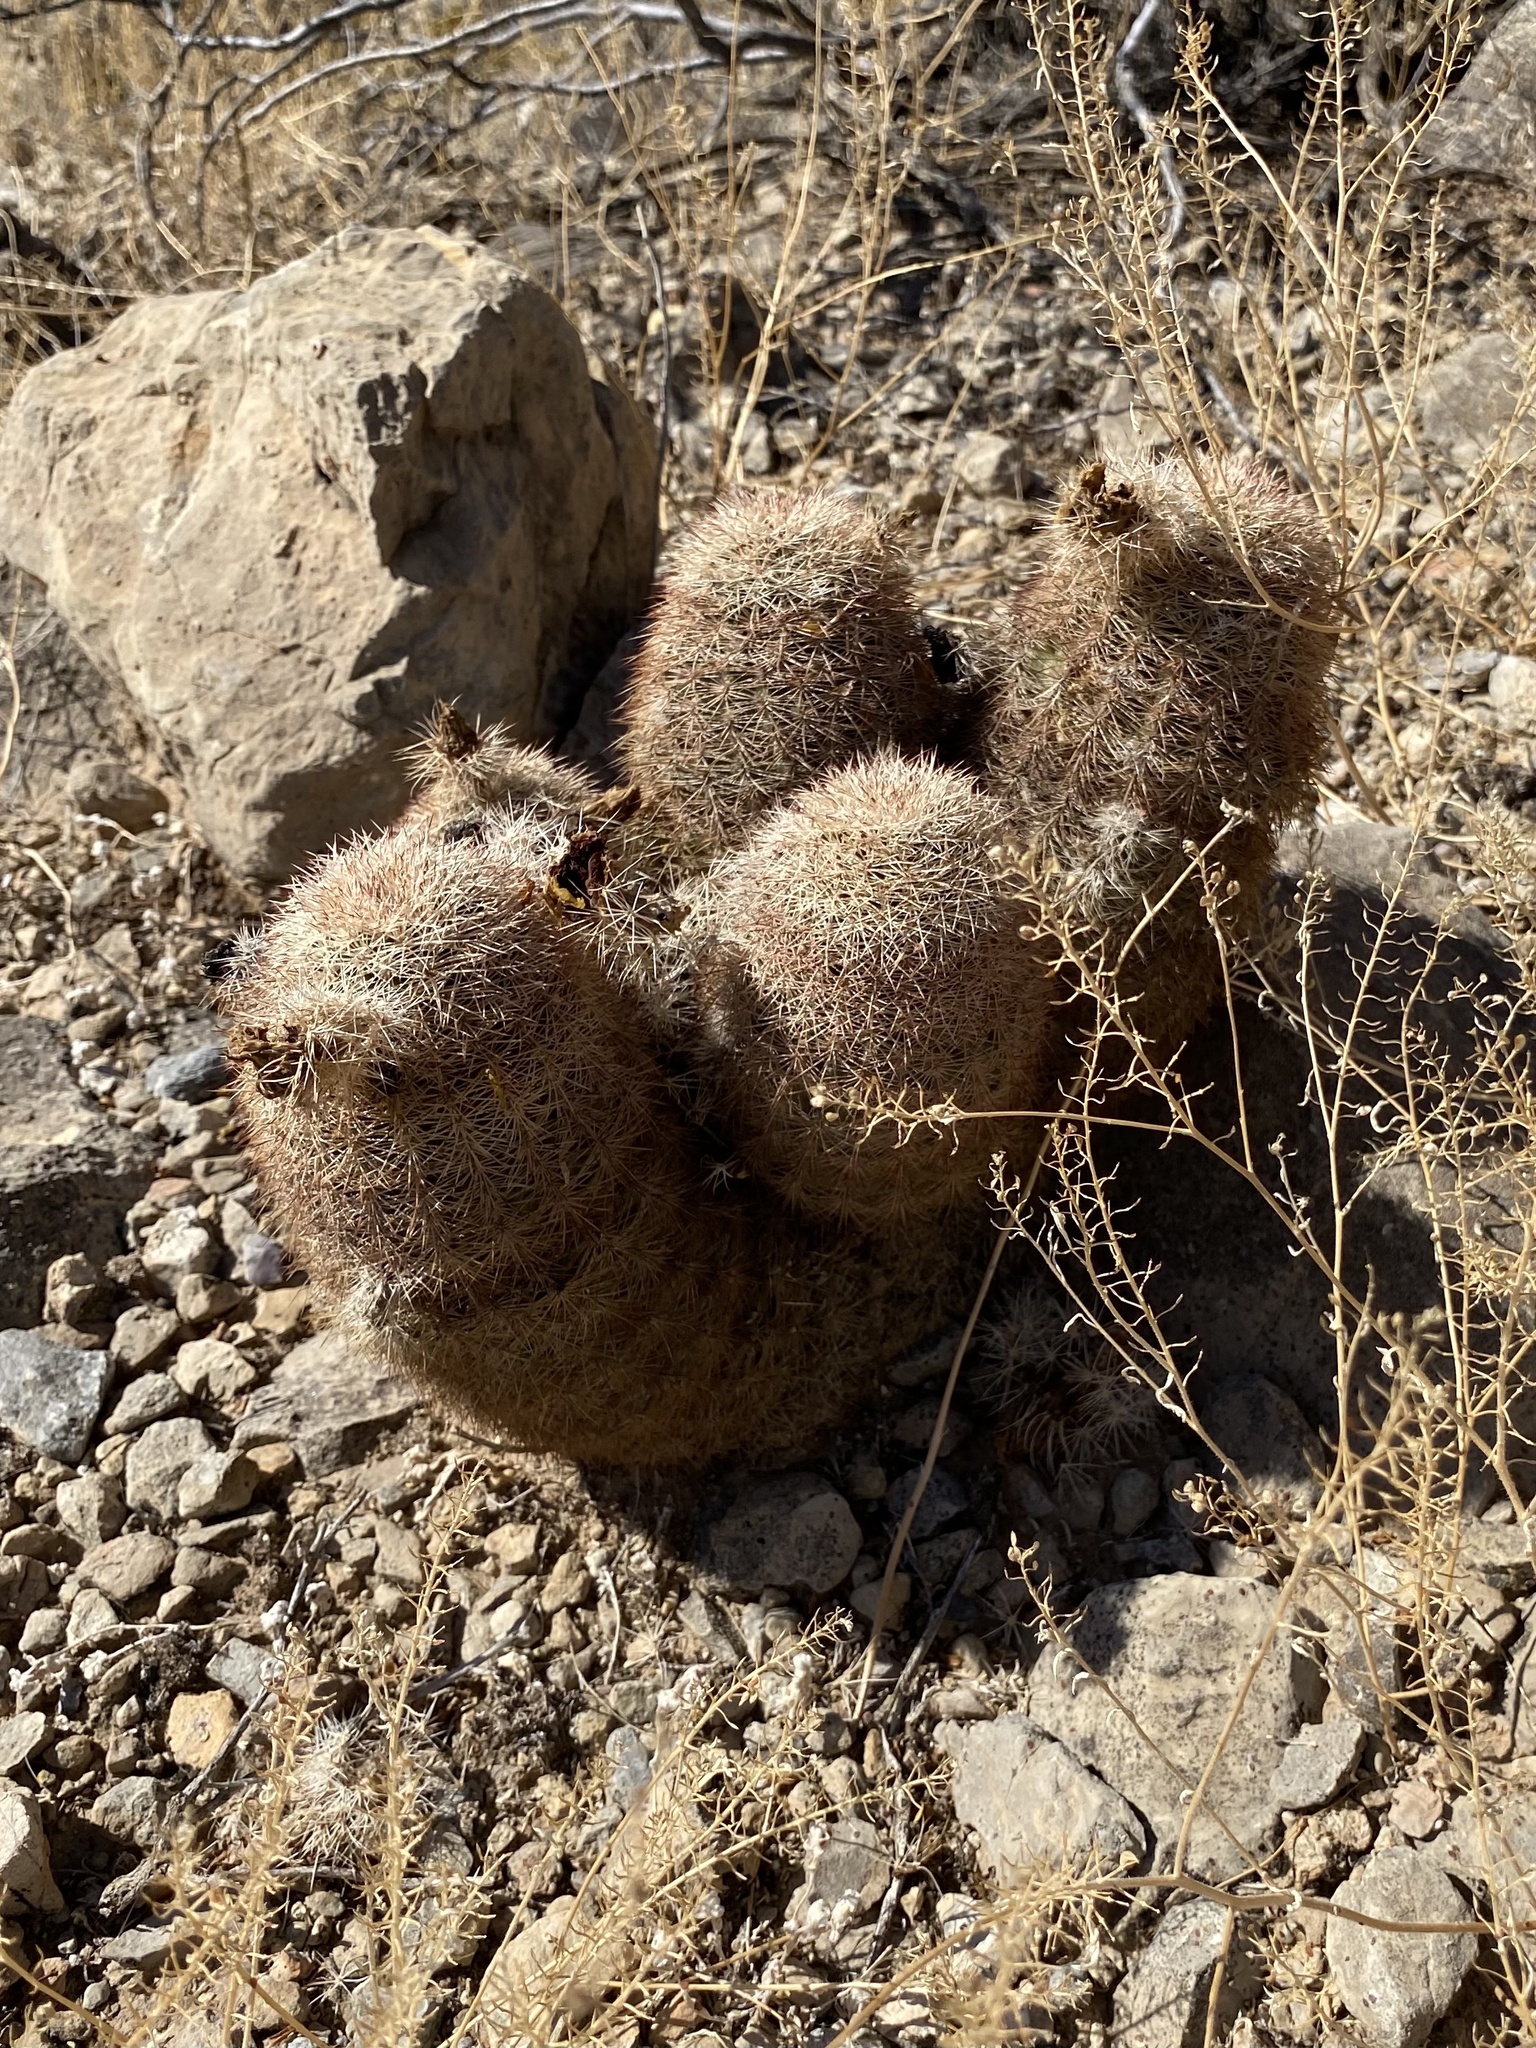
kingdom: Plantae
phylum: Tracheophyta
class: Magnoliopsida
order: Caryophyllales
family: Cactaceae
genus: Echinocereus
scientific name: Echinocereus dasyacanthus
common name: Spiny hedgehog cactus
